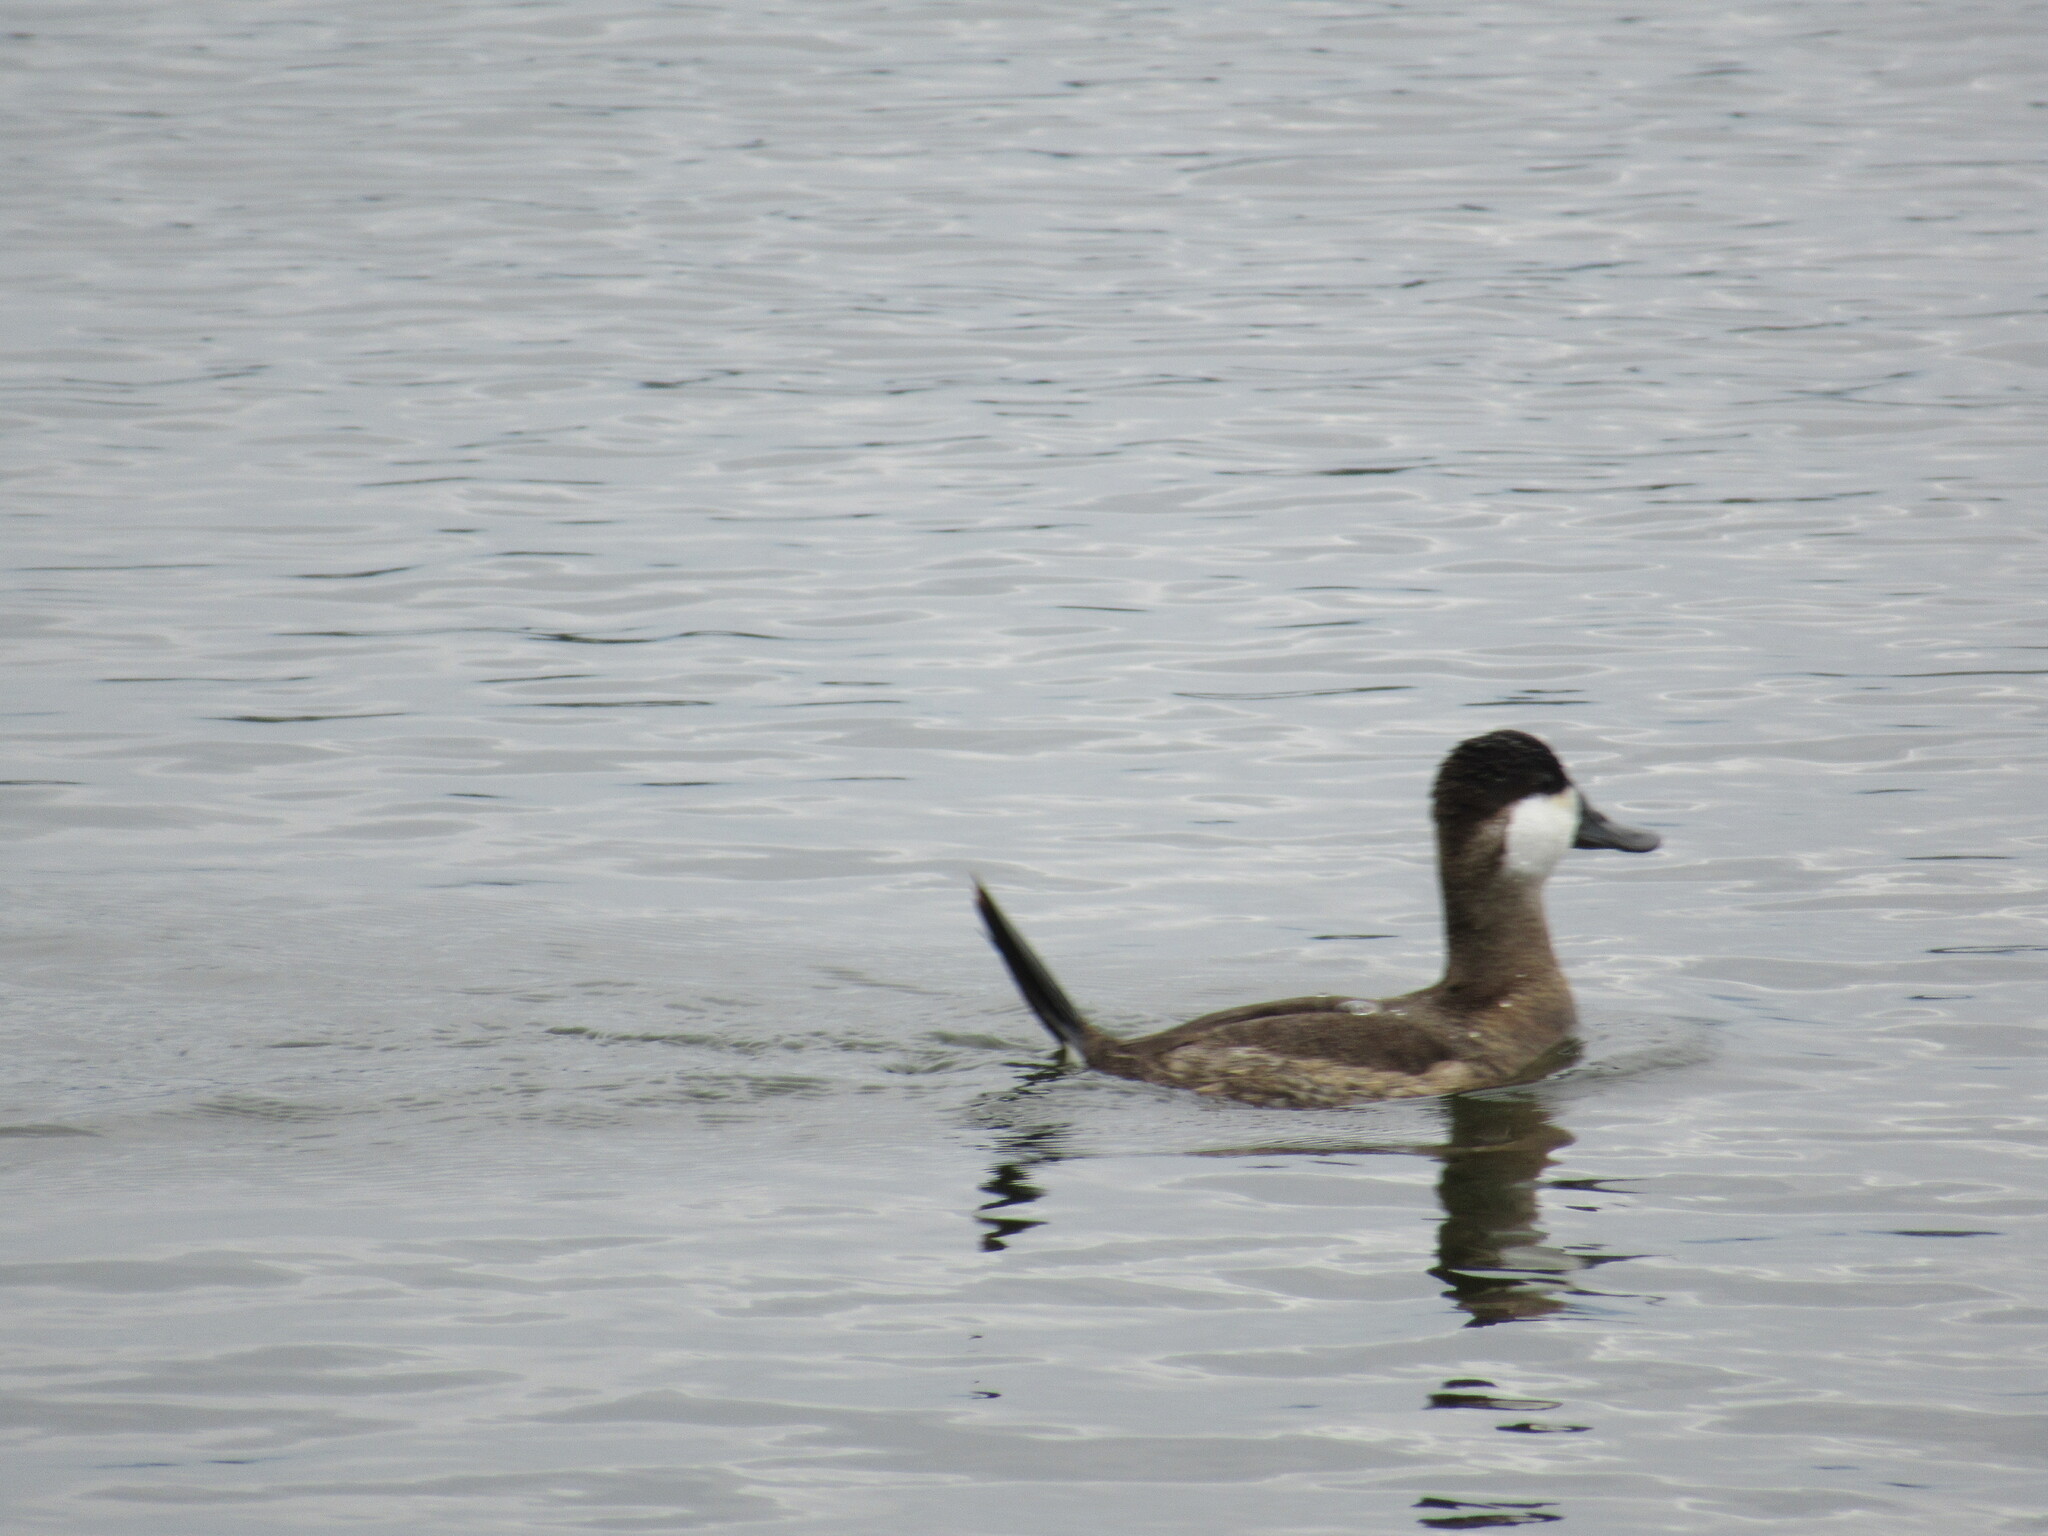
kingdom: Animalia
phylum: Chordata
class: Aves
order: Anseriformes
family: Anatidae
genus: Oxyura
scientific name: Oxyura jamaicensis
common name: Ruddy duck
